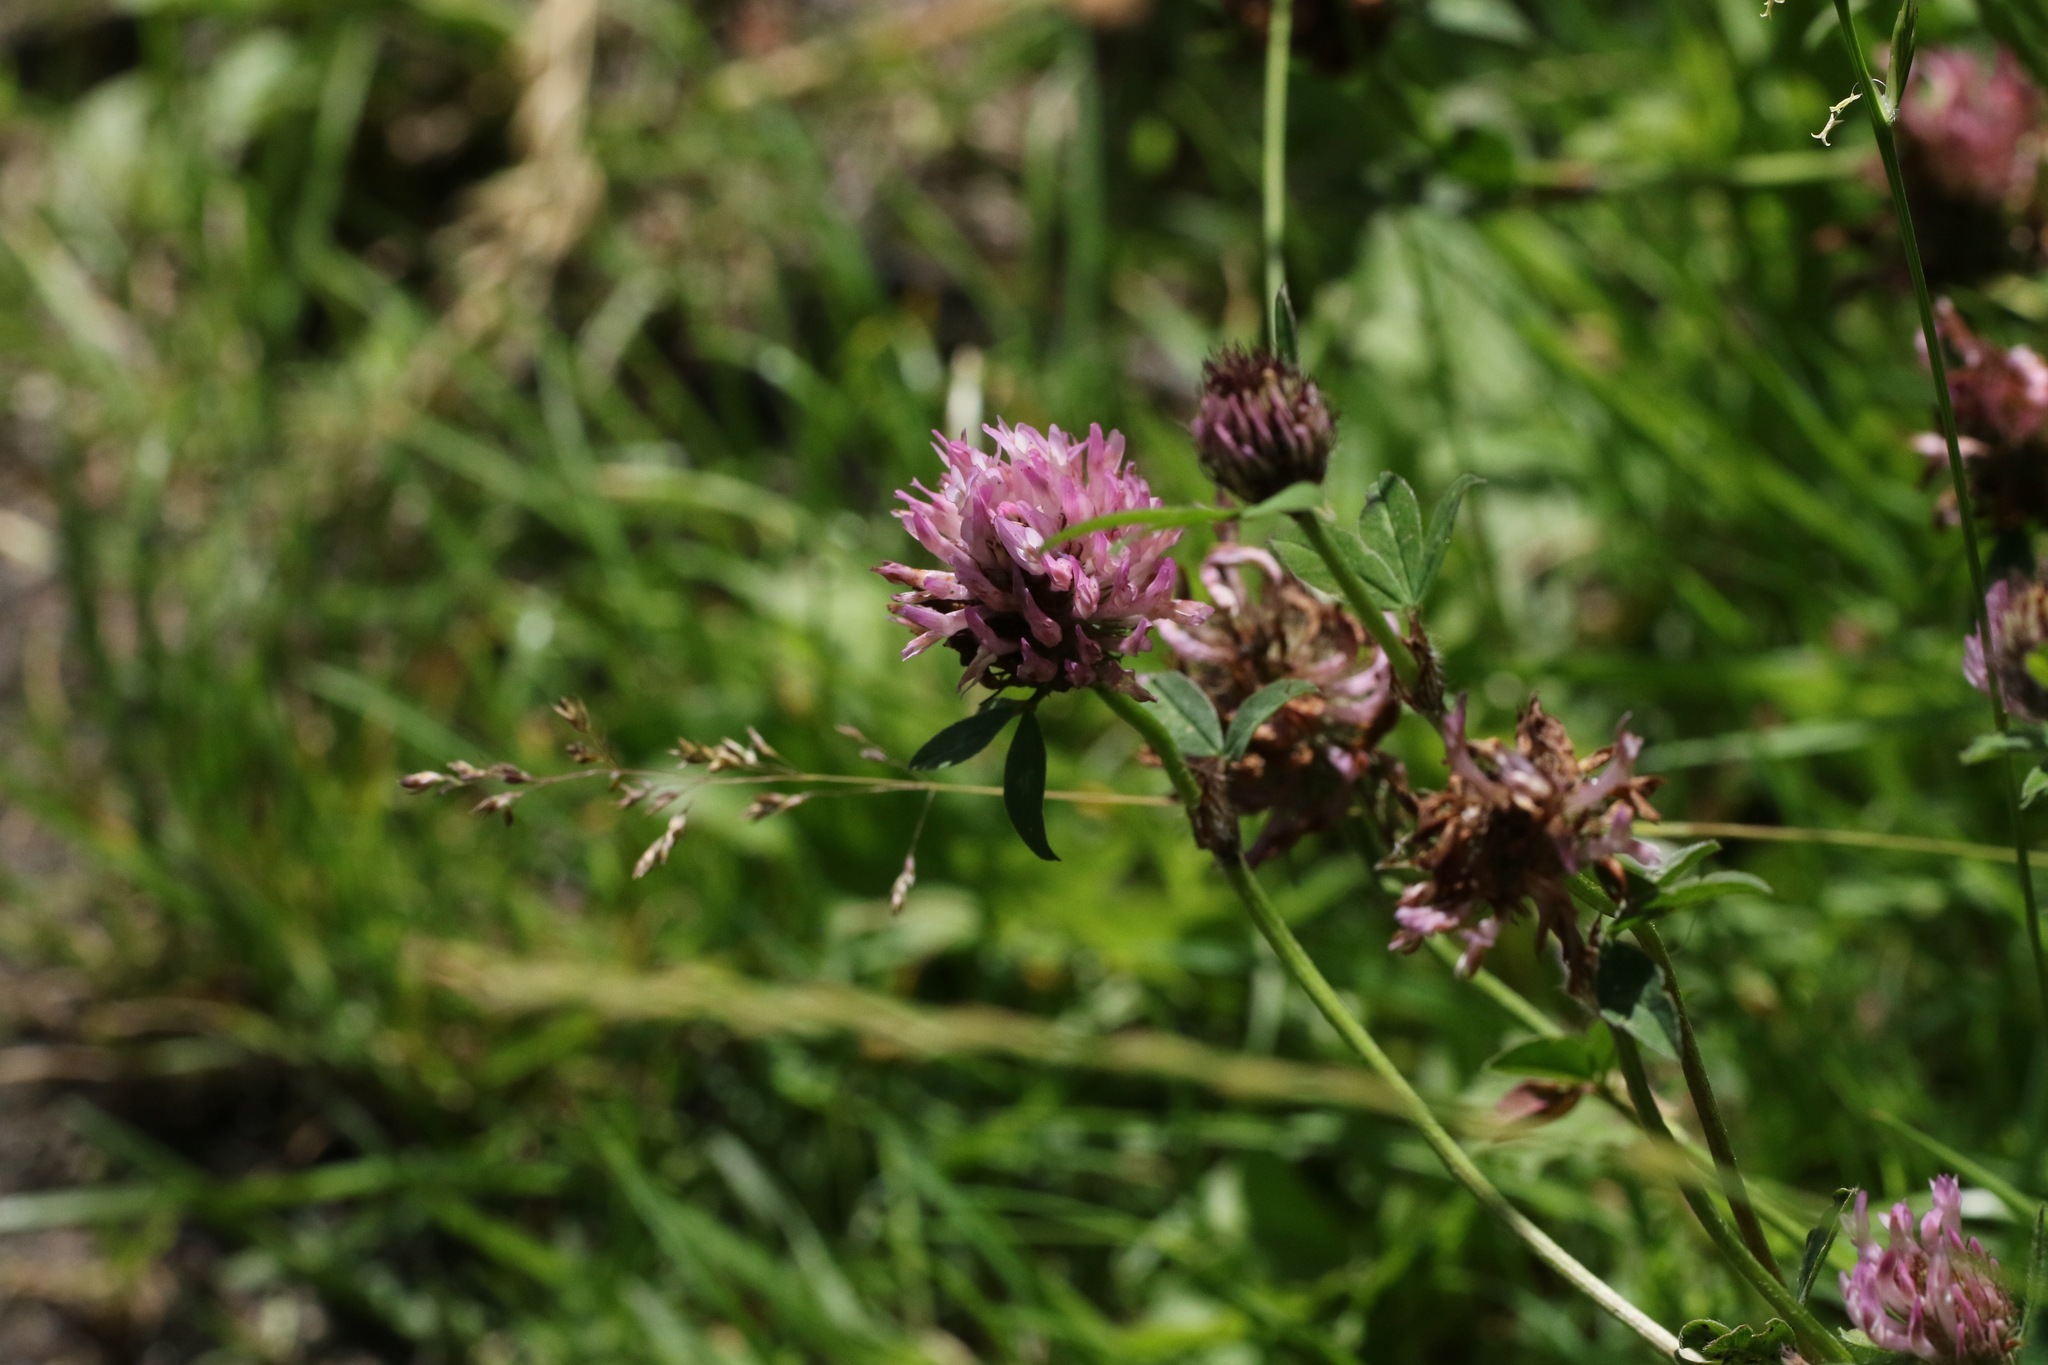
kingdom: Plantae
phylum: Tracheophyta
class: Magnoliopsida
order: Fabales
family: Fabaceae
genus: Trifolium
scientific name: Trifolium pratense
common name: Red clover
